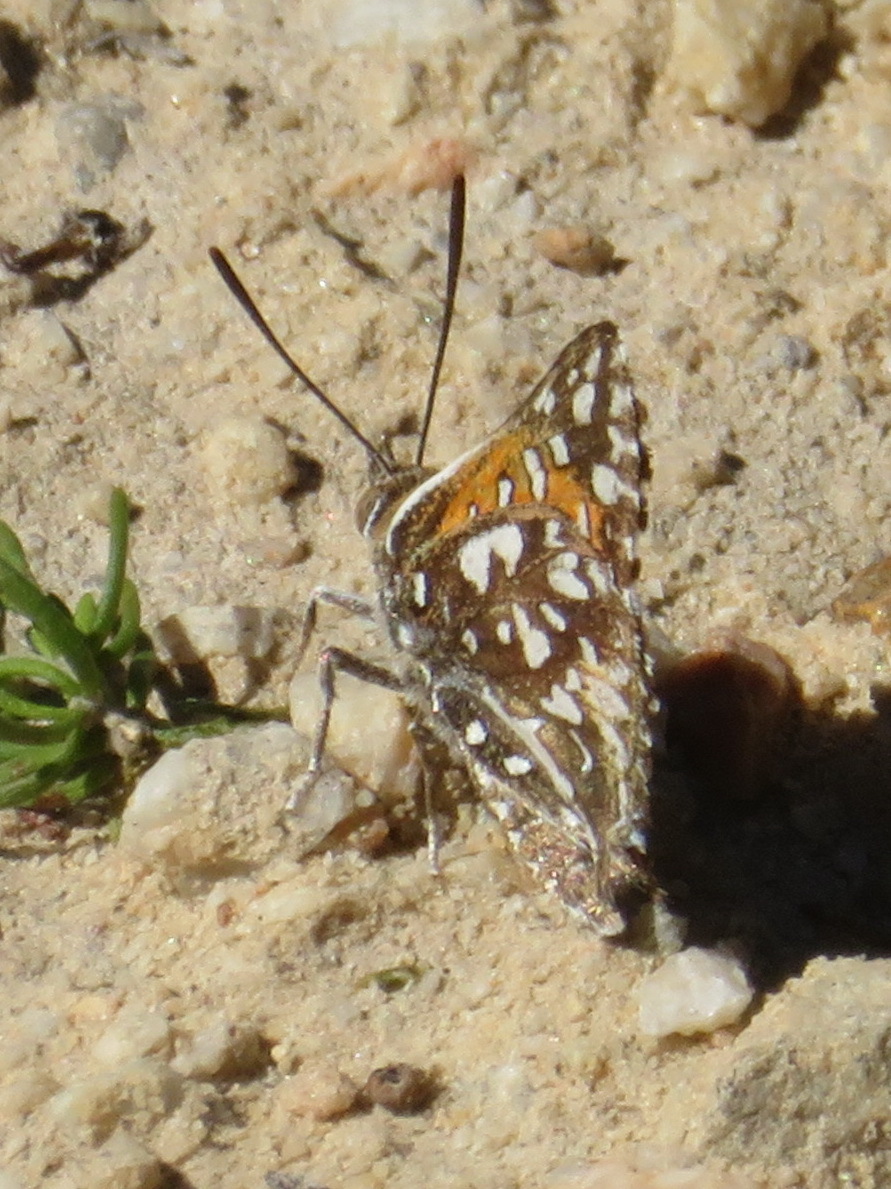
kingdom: Animalia
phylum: Arthropoda
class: Insecta
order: Lepidoptera
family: Lycaenidae
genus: Phasis
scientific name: Phasis macmasteri
